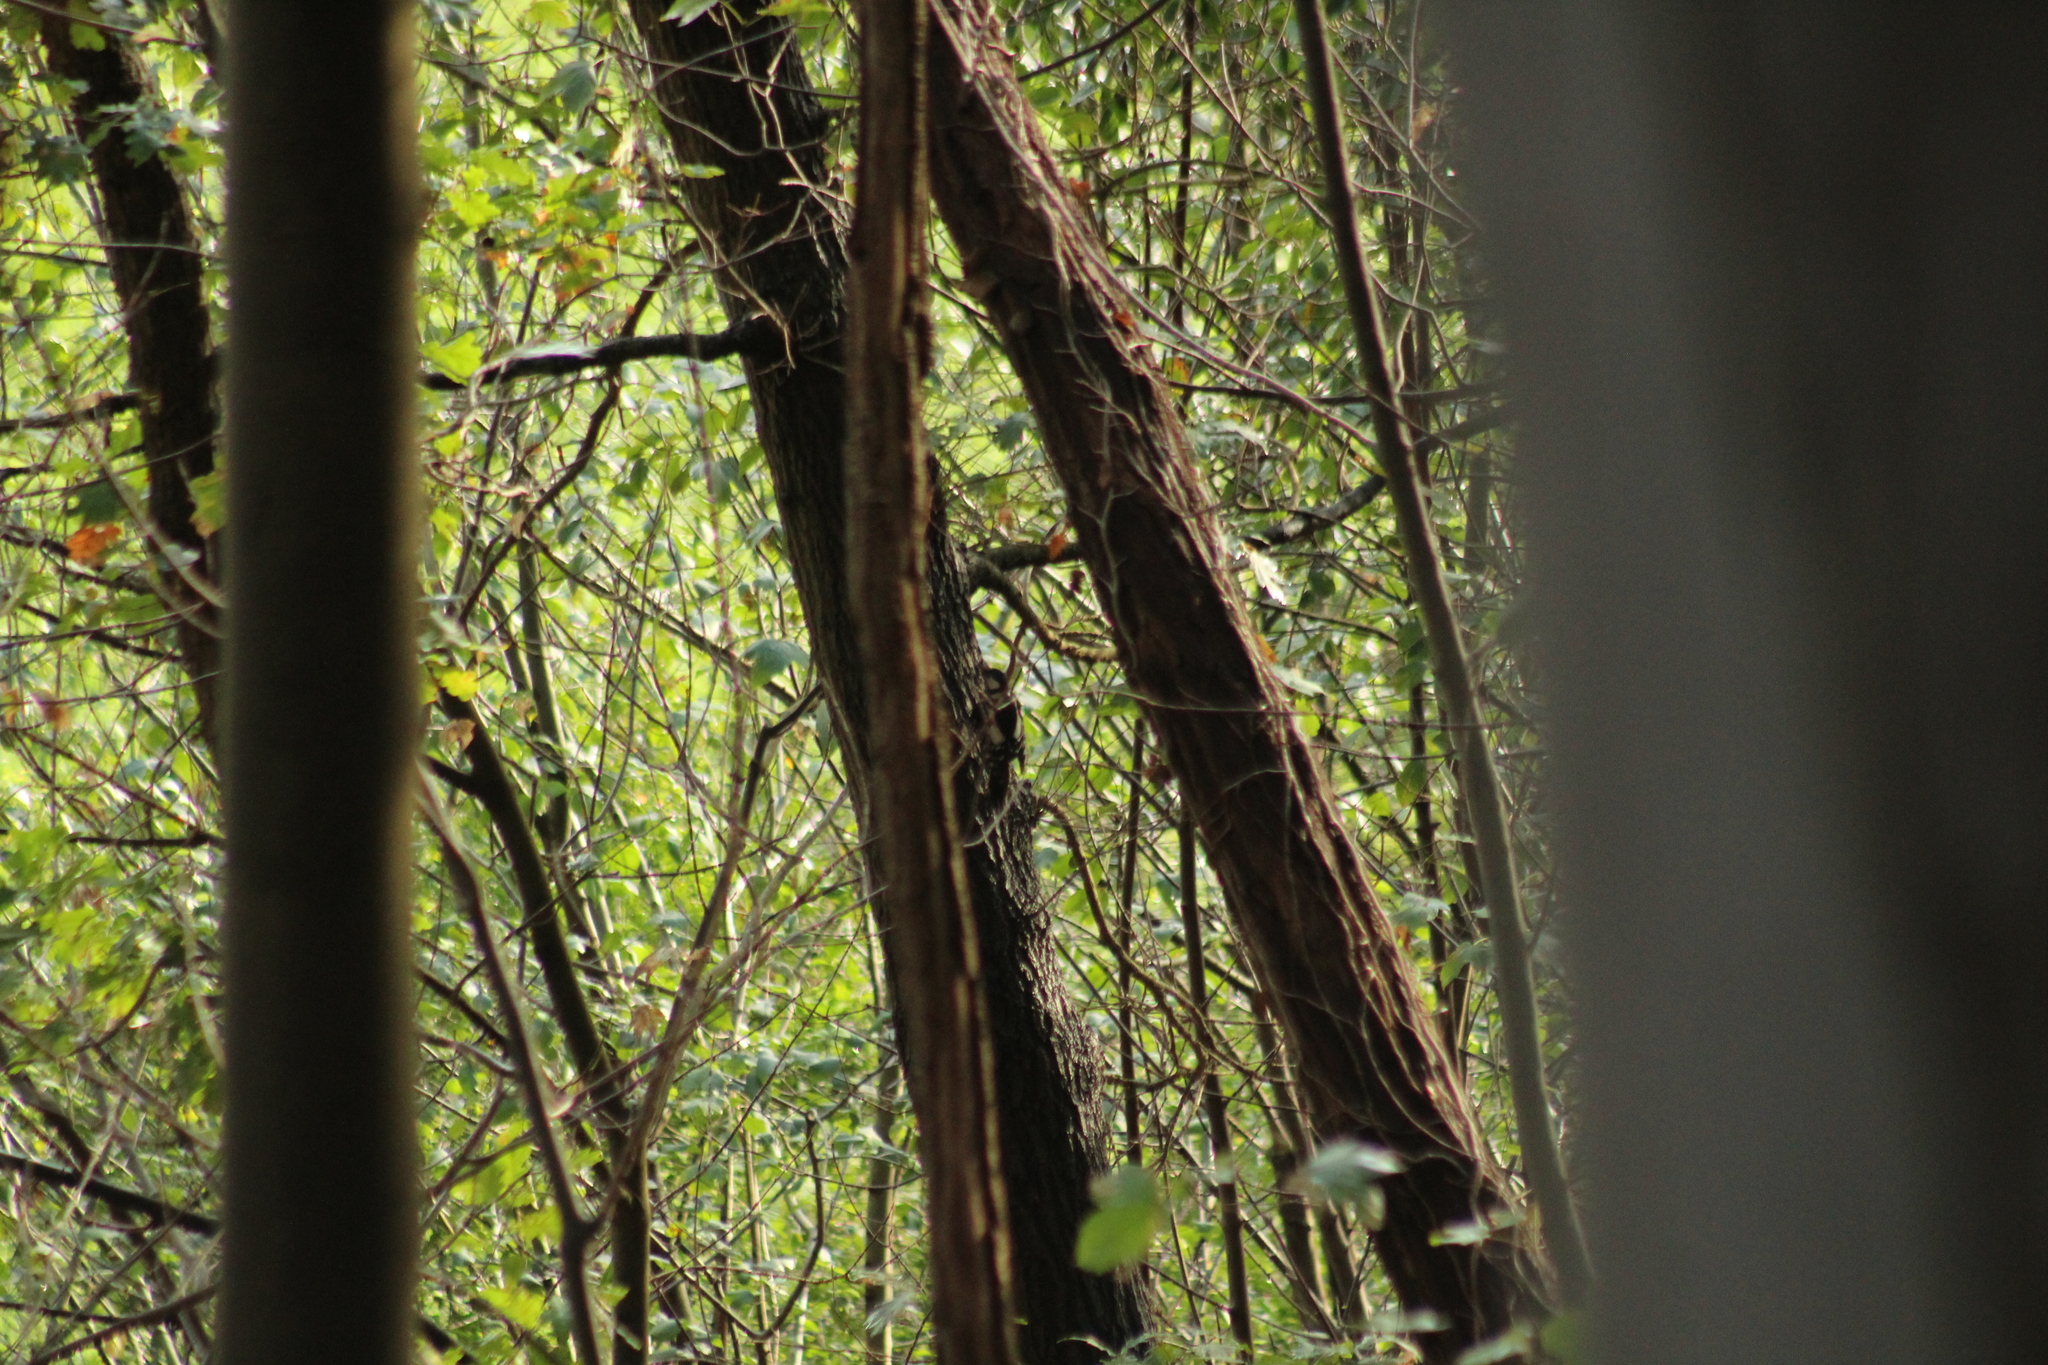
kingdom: Animalia
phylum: Chordata
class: Aves
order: Piciformes
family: Picidae
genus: Dendrocopos
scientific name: Dendrocopos major
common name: Great spotted woodpecker
